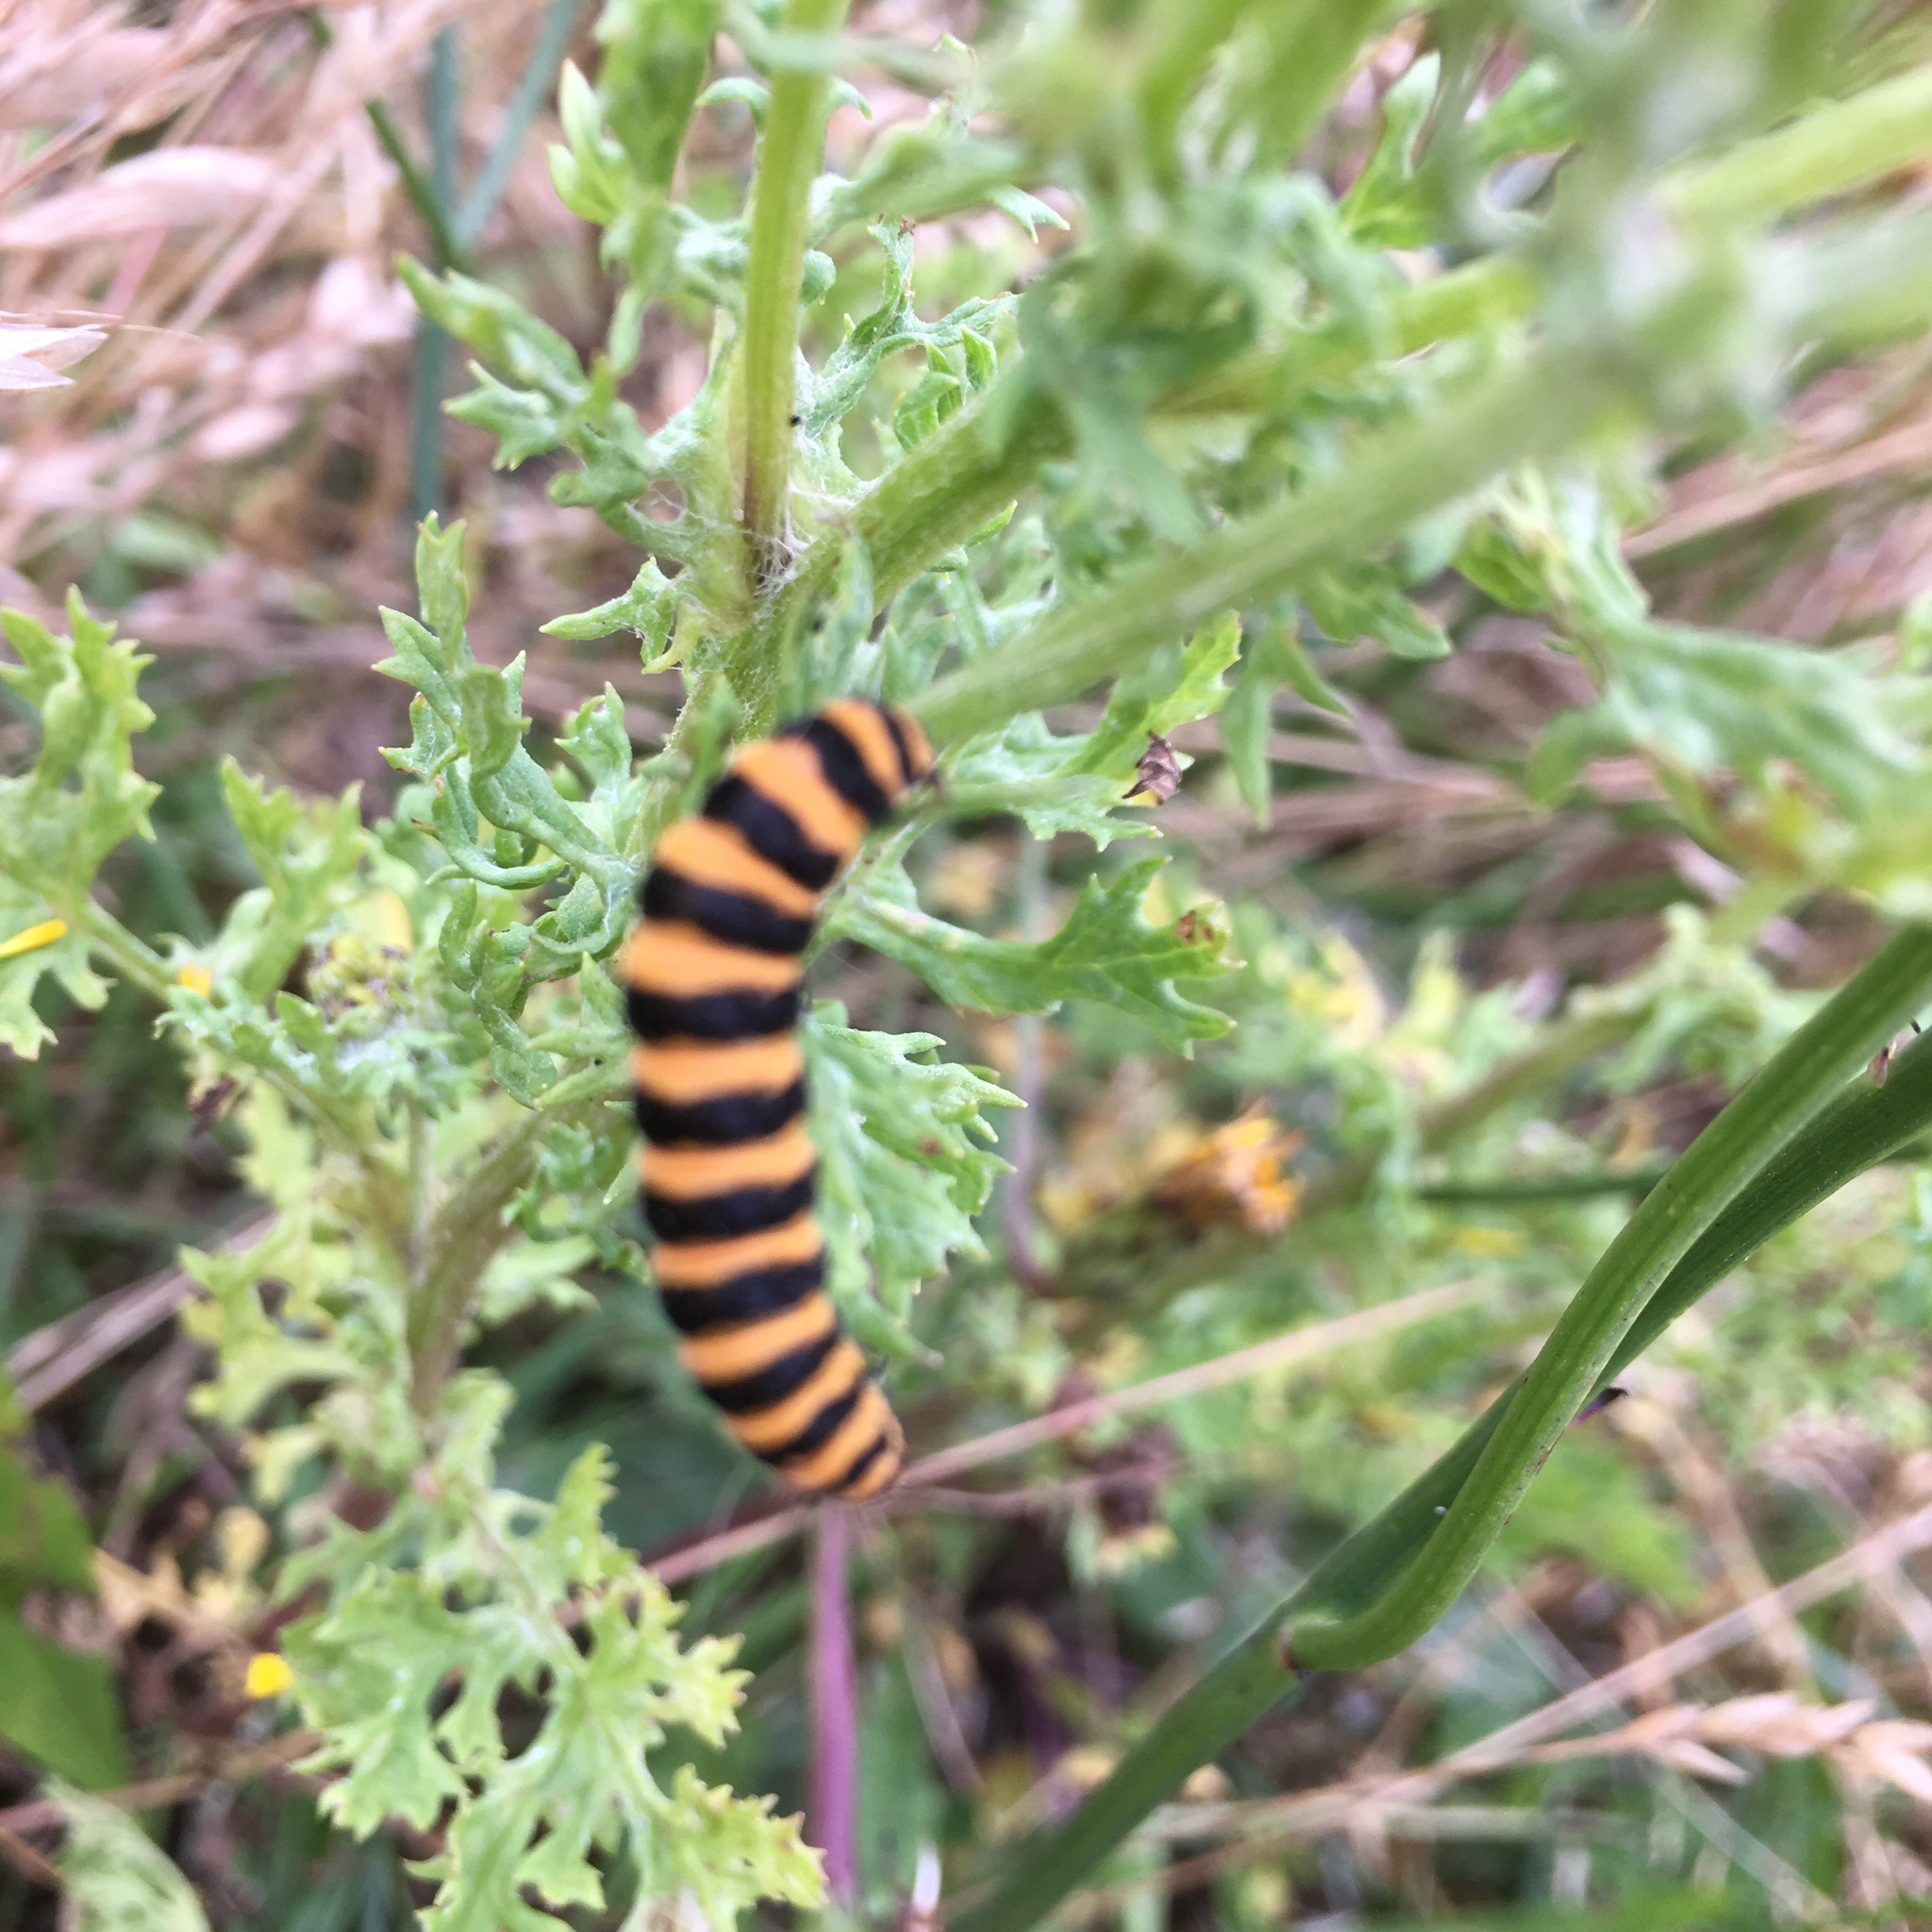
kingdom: Animalia
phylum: Arthropoda
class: Insecta
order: Lepidoptera
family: Erebidae
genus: Tyria
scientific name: Tyria jacobaeae
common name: Cinnabar
